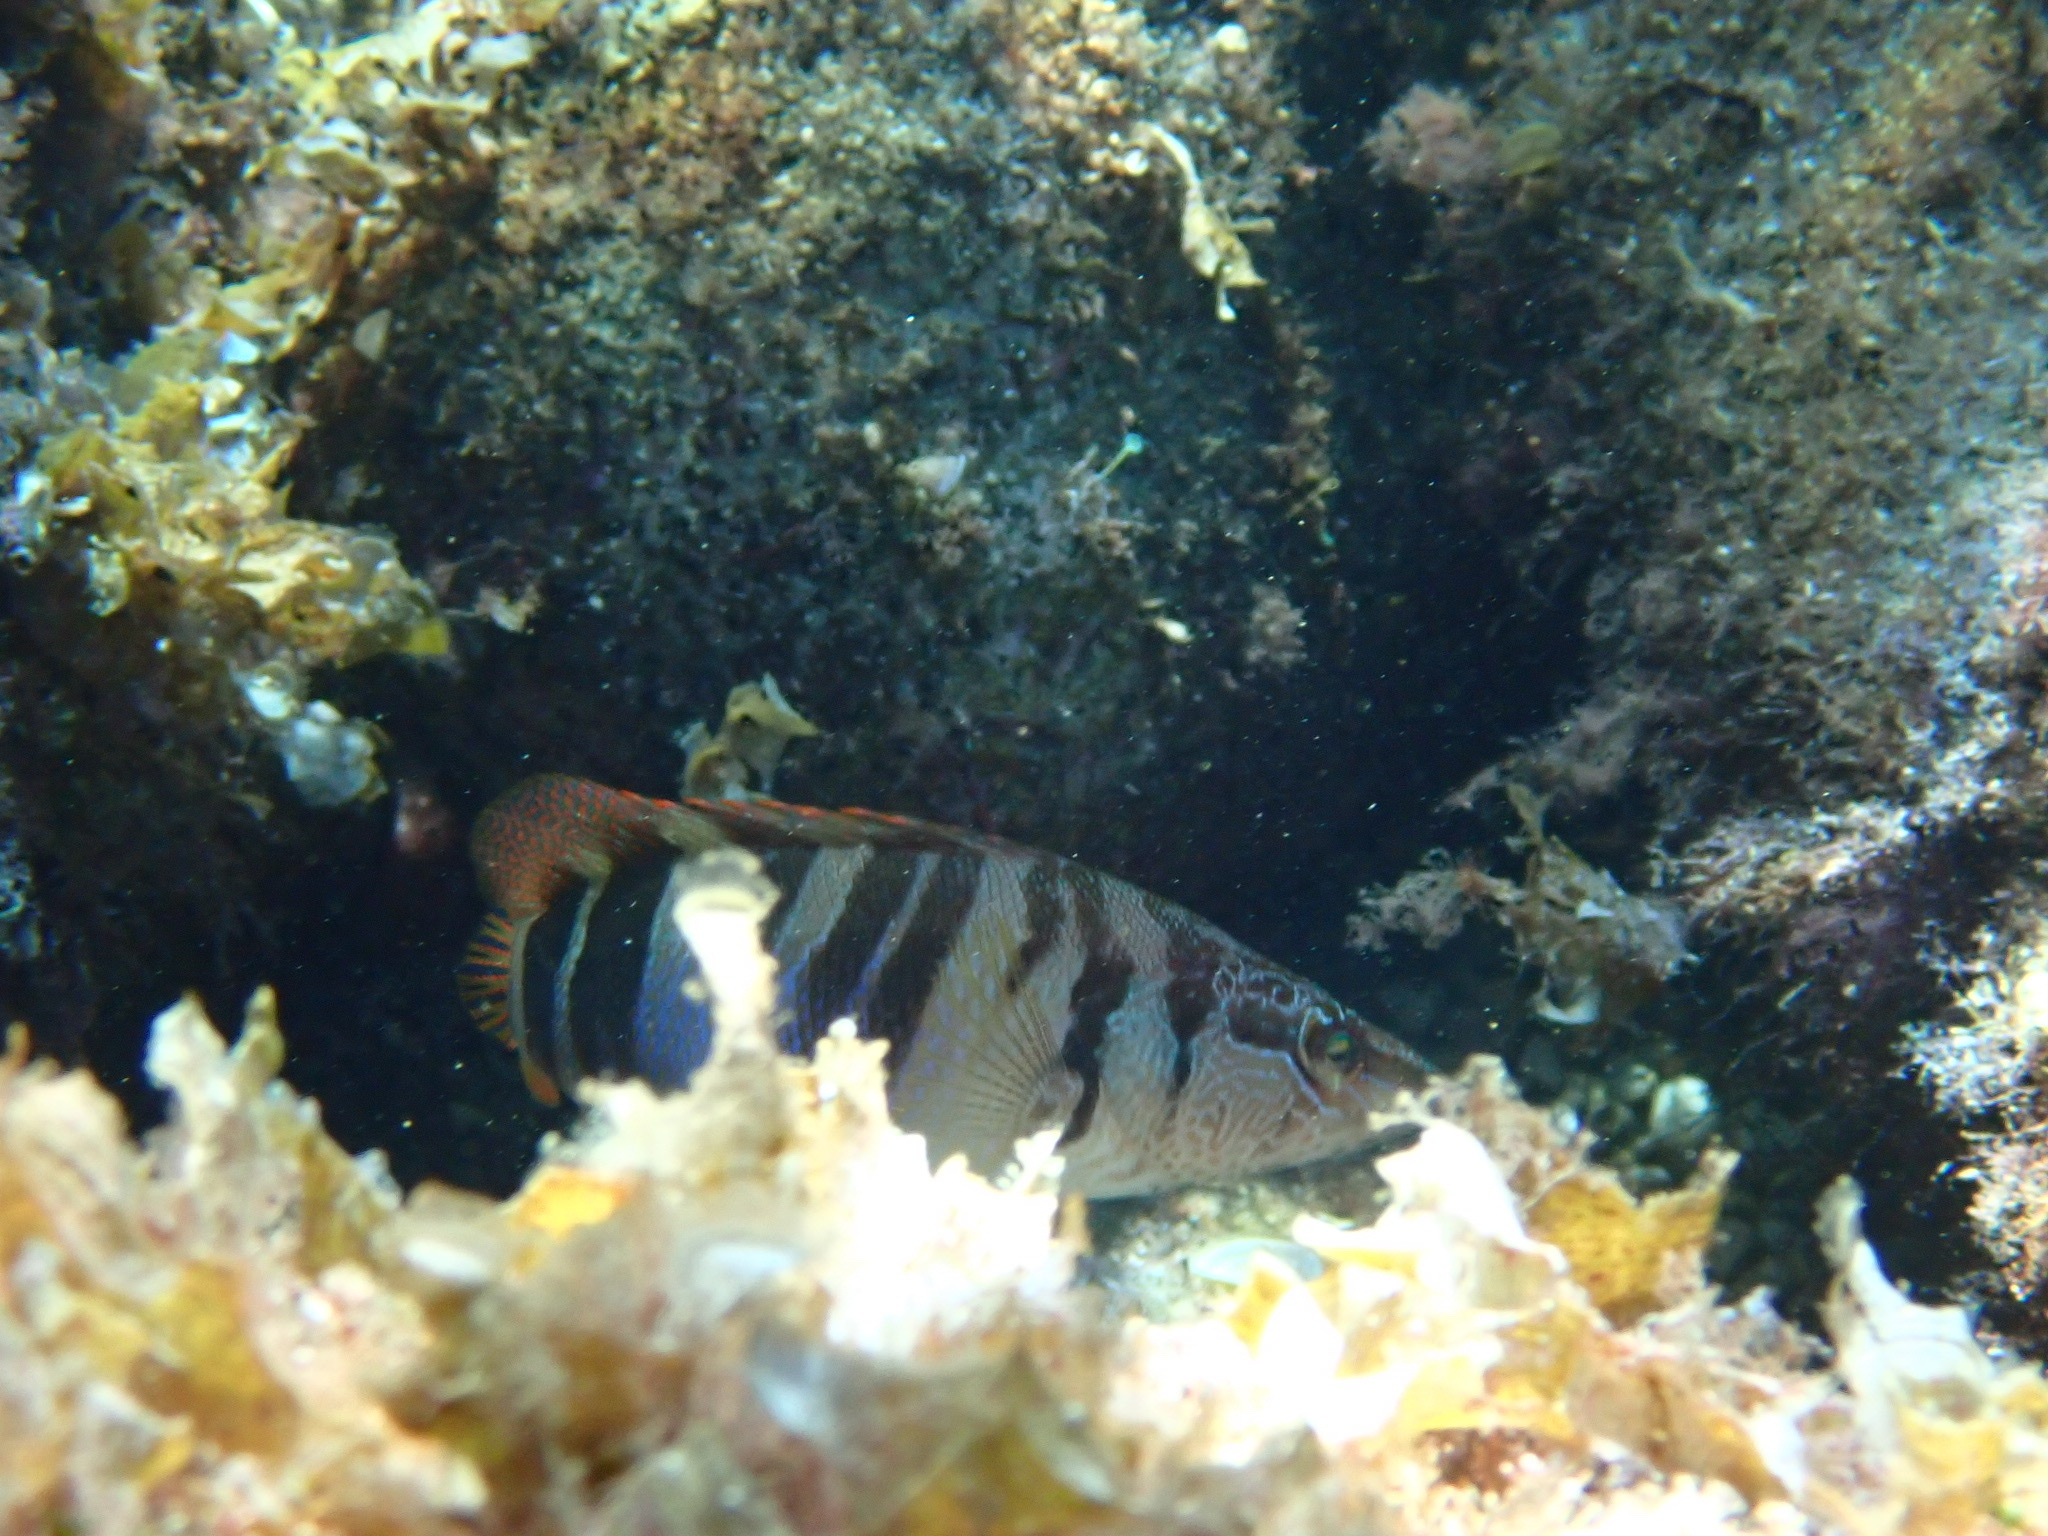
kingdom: Animalia
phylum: Chordata
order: Perciformes
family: Serranidae
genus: Serranus
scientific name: Serranus scriba
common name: Painted comber
